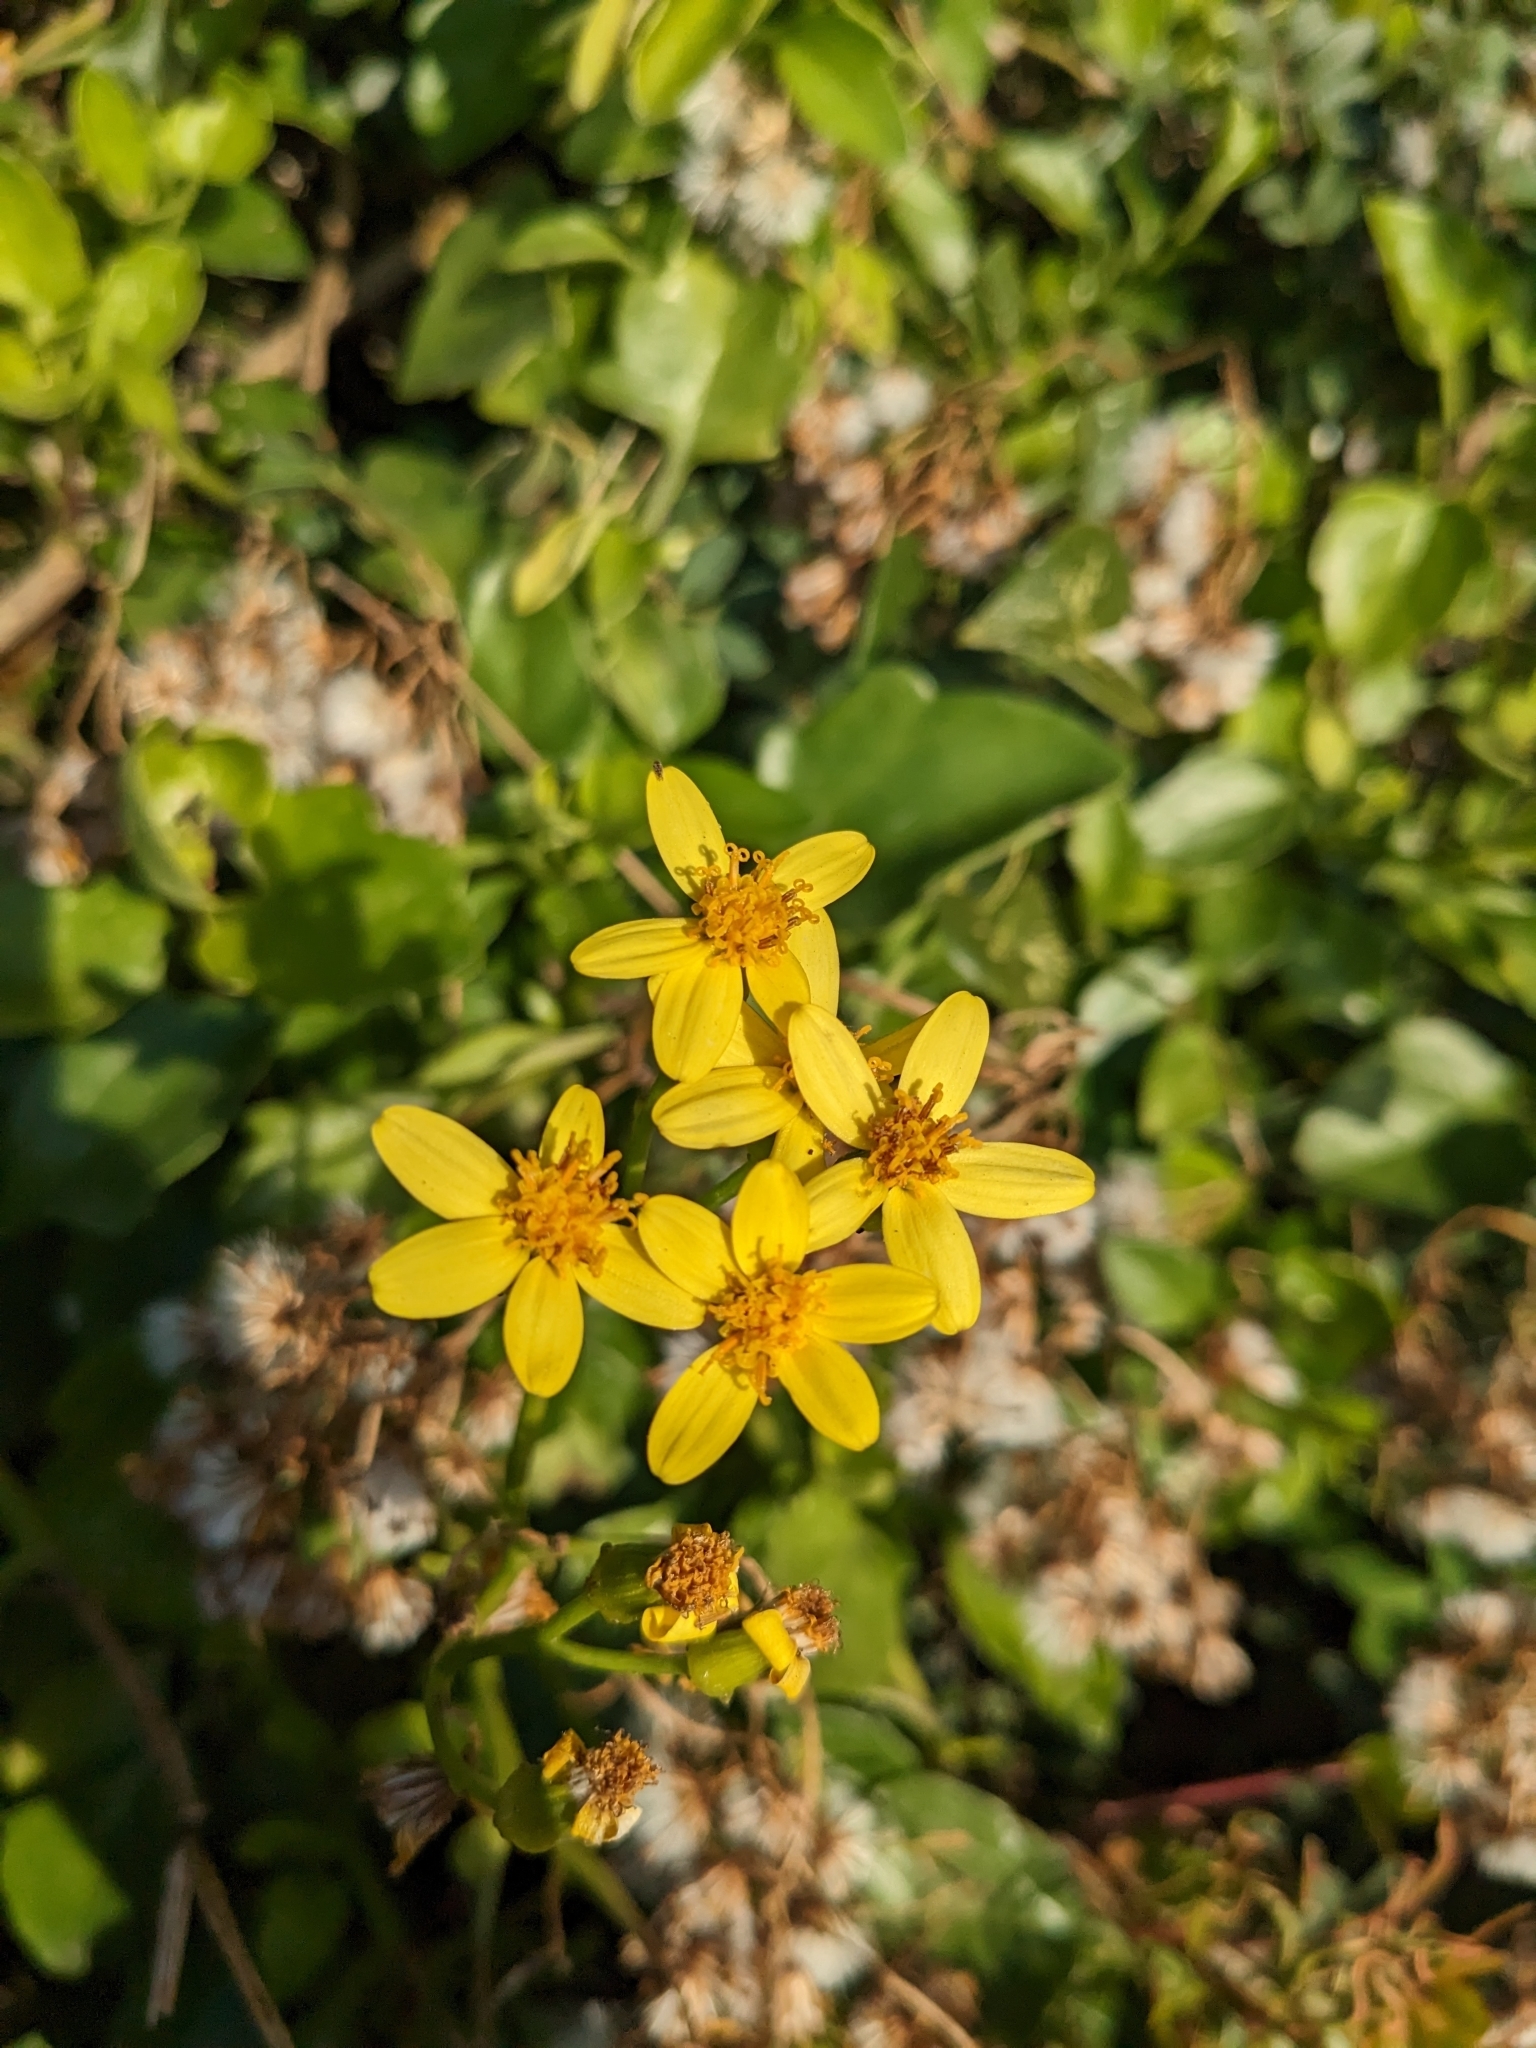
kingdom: Plantae
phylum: Tracheophyta
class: Magnoliopsida
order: Asterales
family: Asteraceae
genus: Senecio
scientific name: Senecio angulatus
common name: Climbing groundsel
